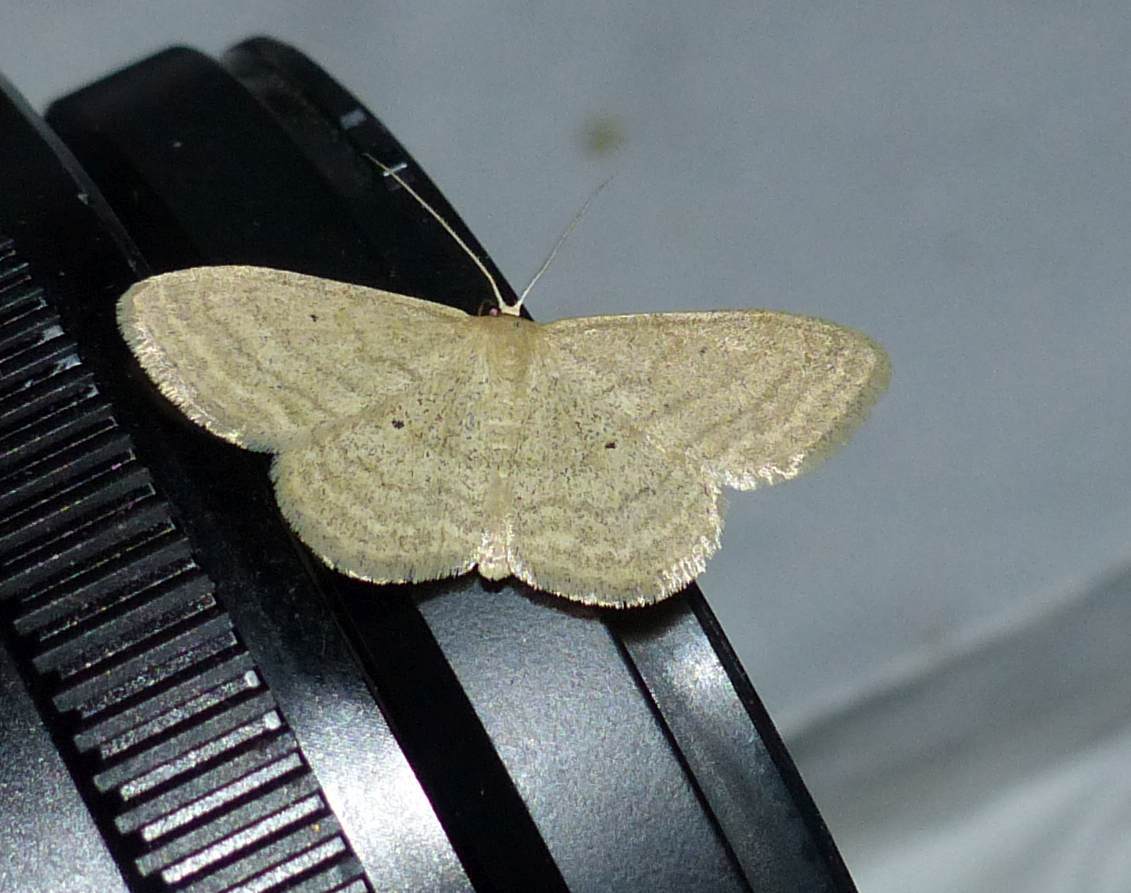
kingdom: Animalia
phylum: Arthropoda
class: Insecta
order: Lepidoptera
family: Geometridae
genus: Scopula
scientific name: Scopula inductata
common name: Soft-lined wave
